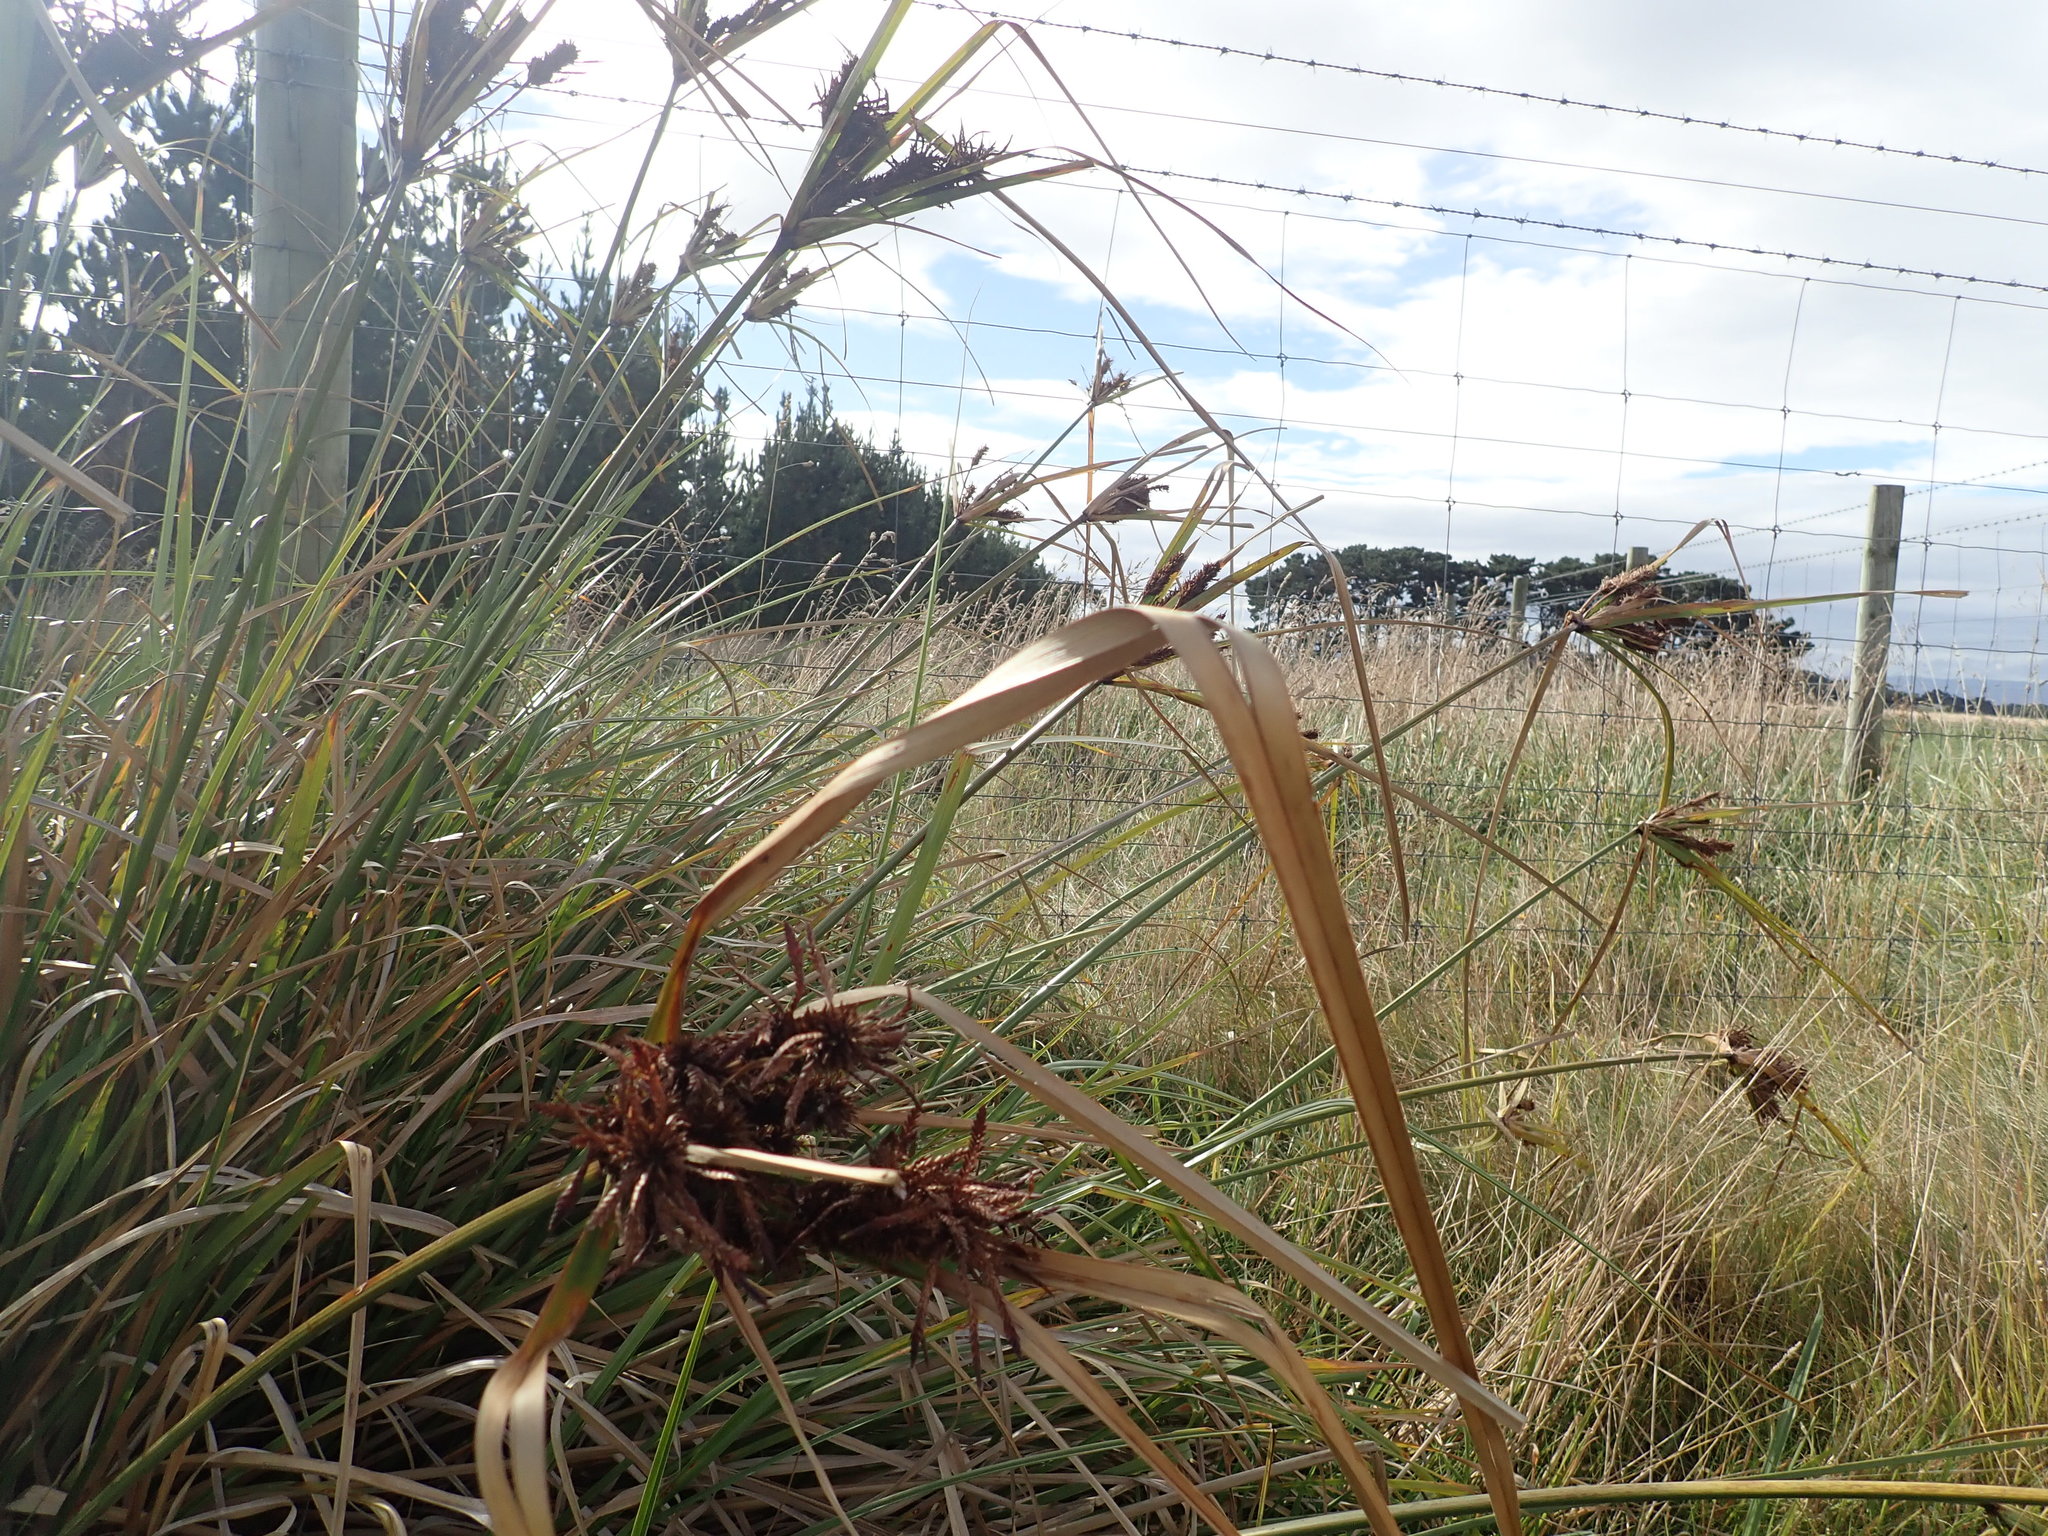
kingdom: Plantae
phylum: Tracheophyta
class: Liliopsida
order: Poales
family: Cyperaceae
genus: Cyperus
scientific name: Cyperus ustulatus
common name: Giant umbrella-sedge
